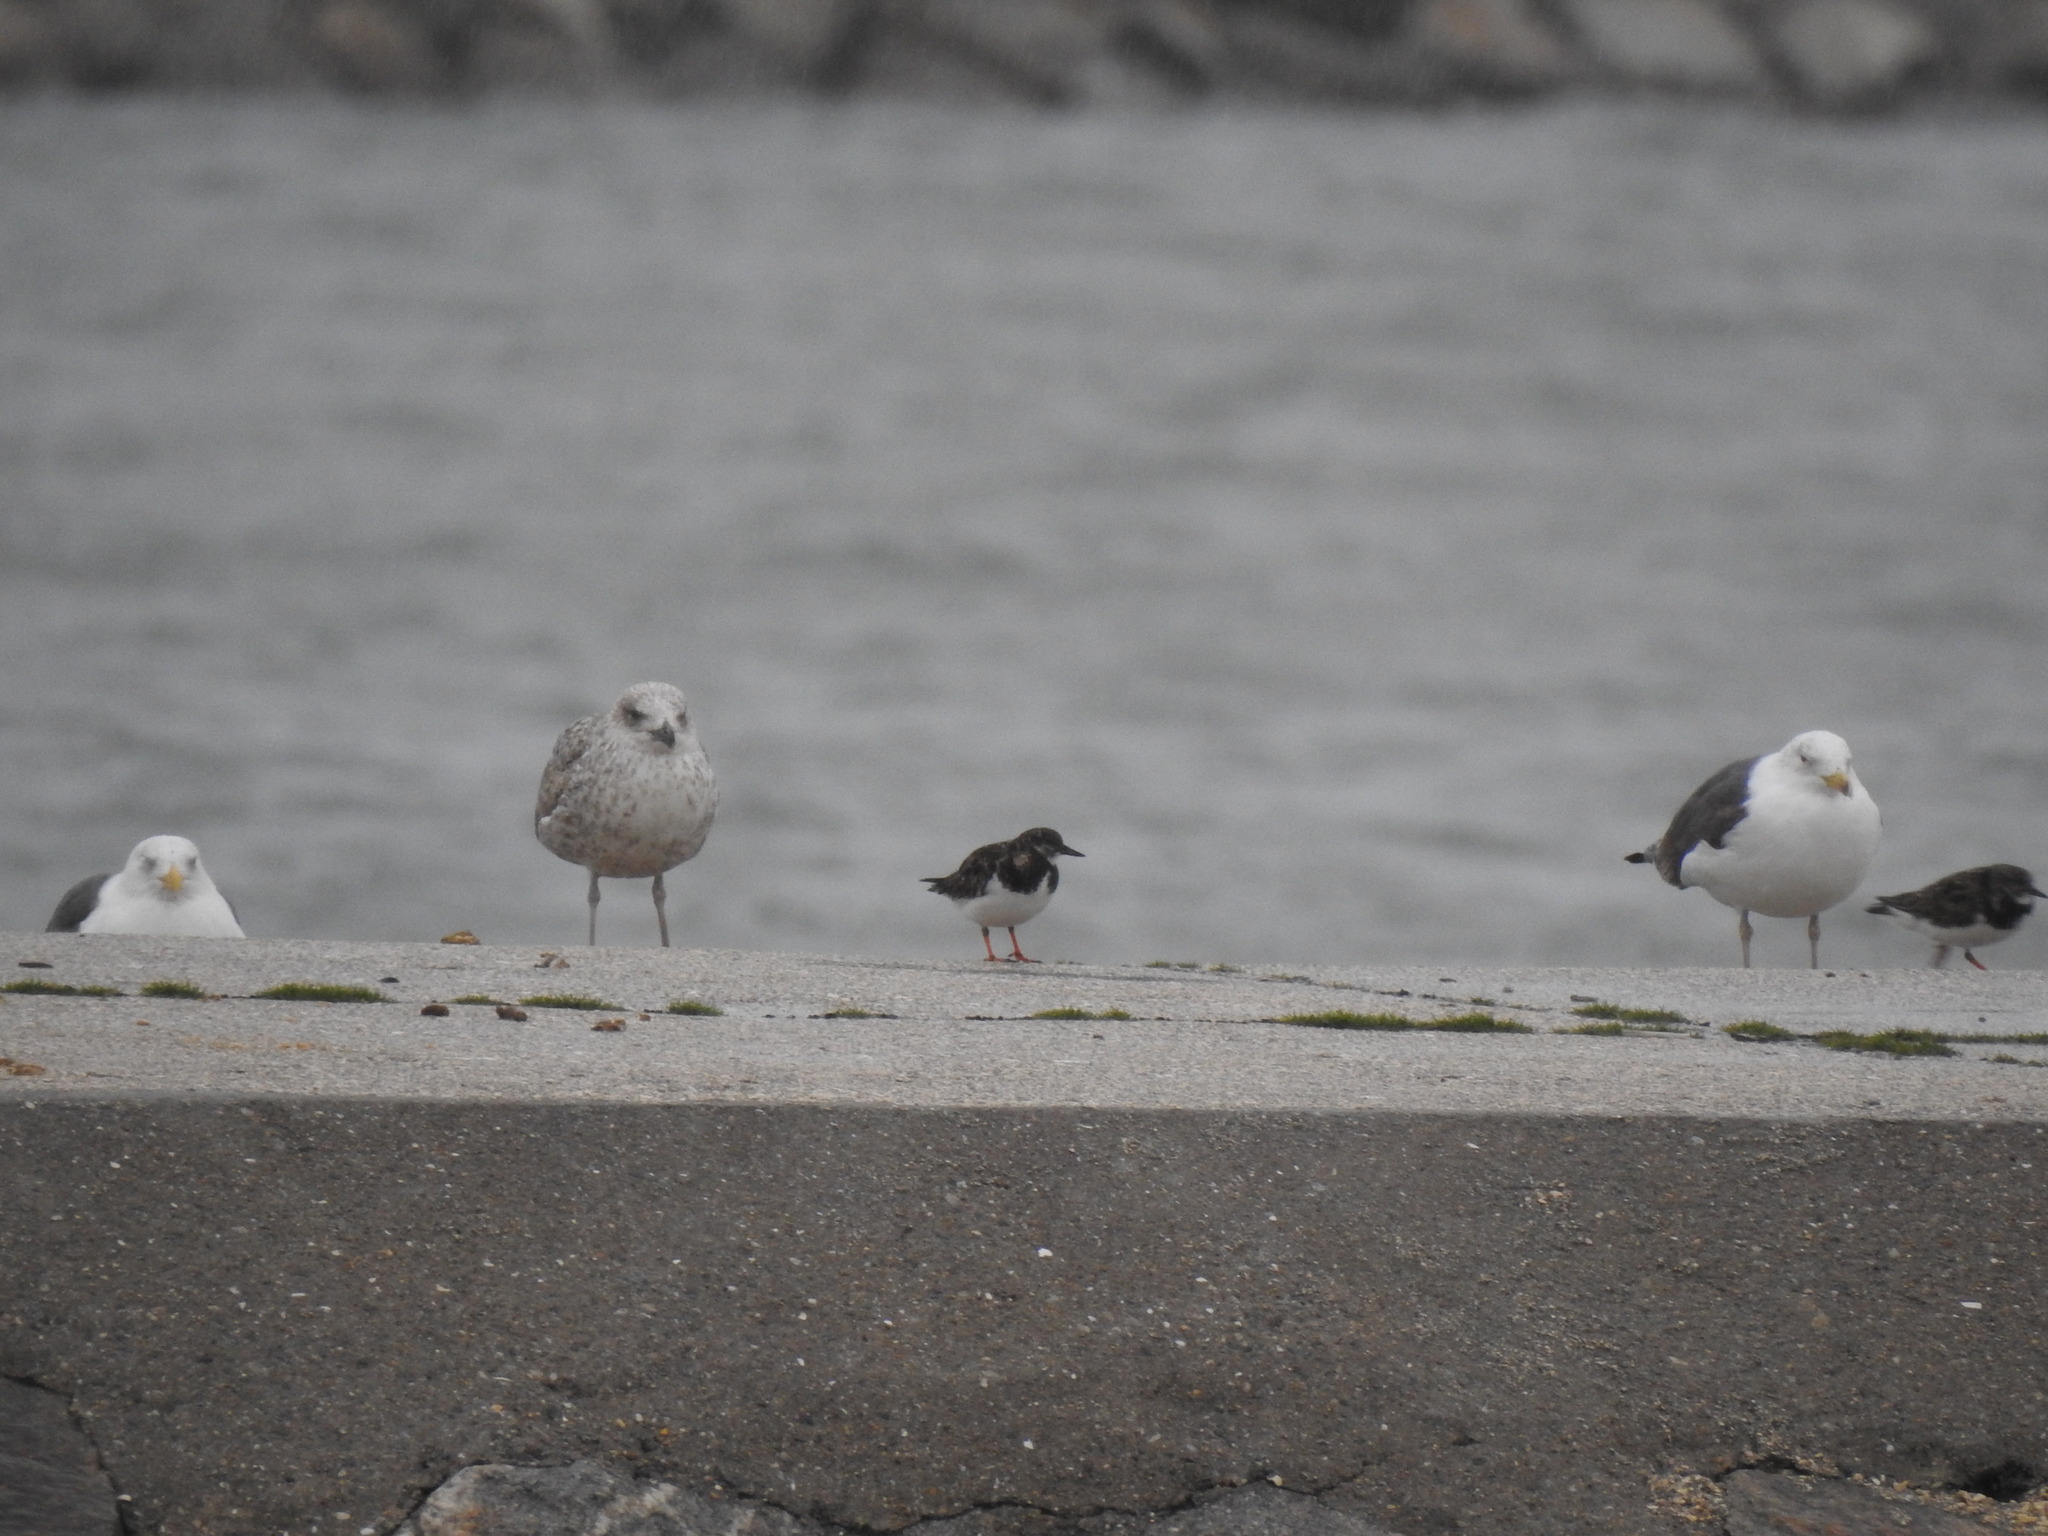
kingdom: Animalia
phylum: Chordata
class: Aves
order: Charadriiformes
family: Scolopacidae
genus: Arenaria
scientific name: Arenaria interpres
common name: Ruddy turnstone
